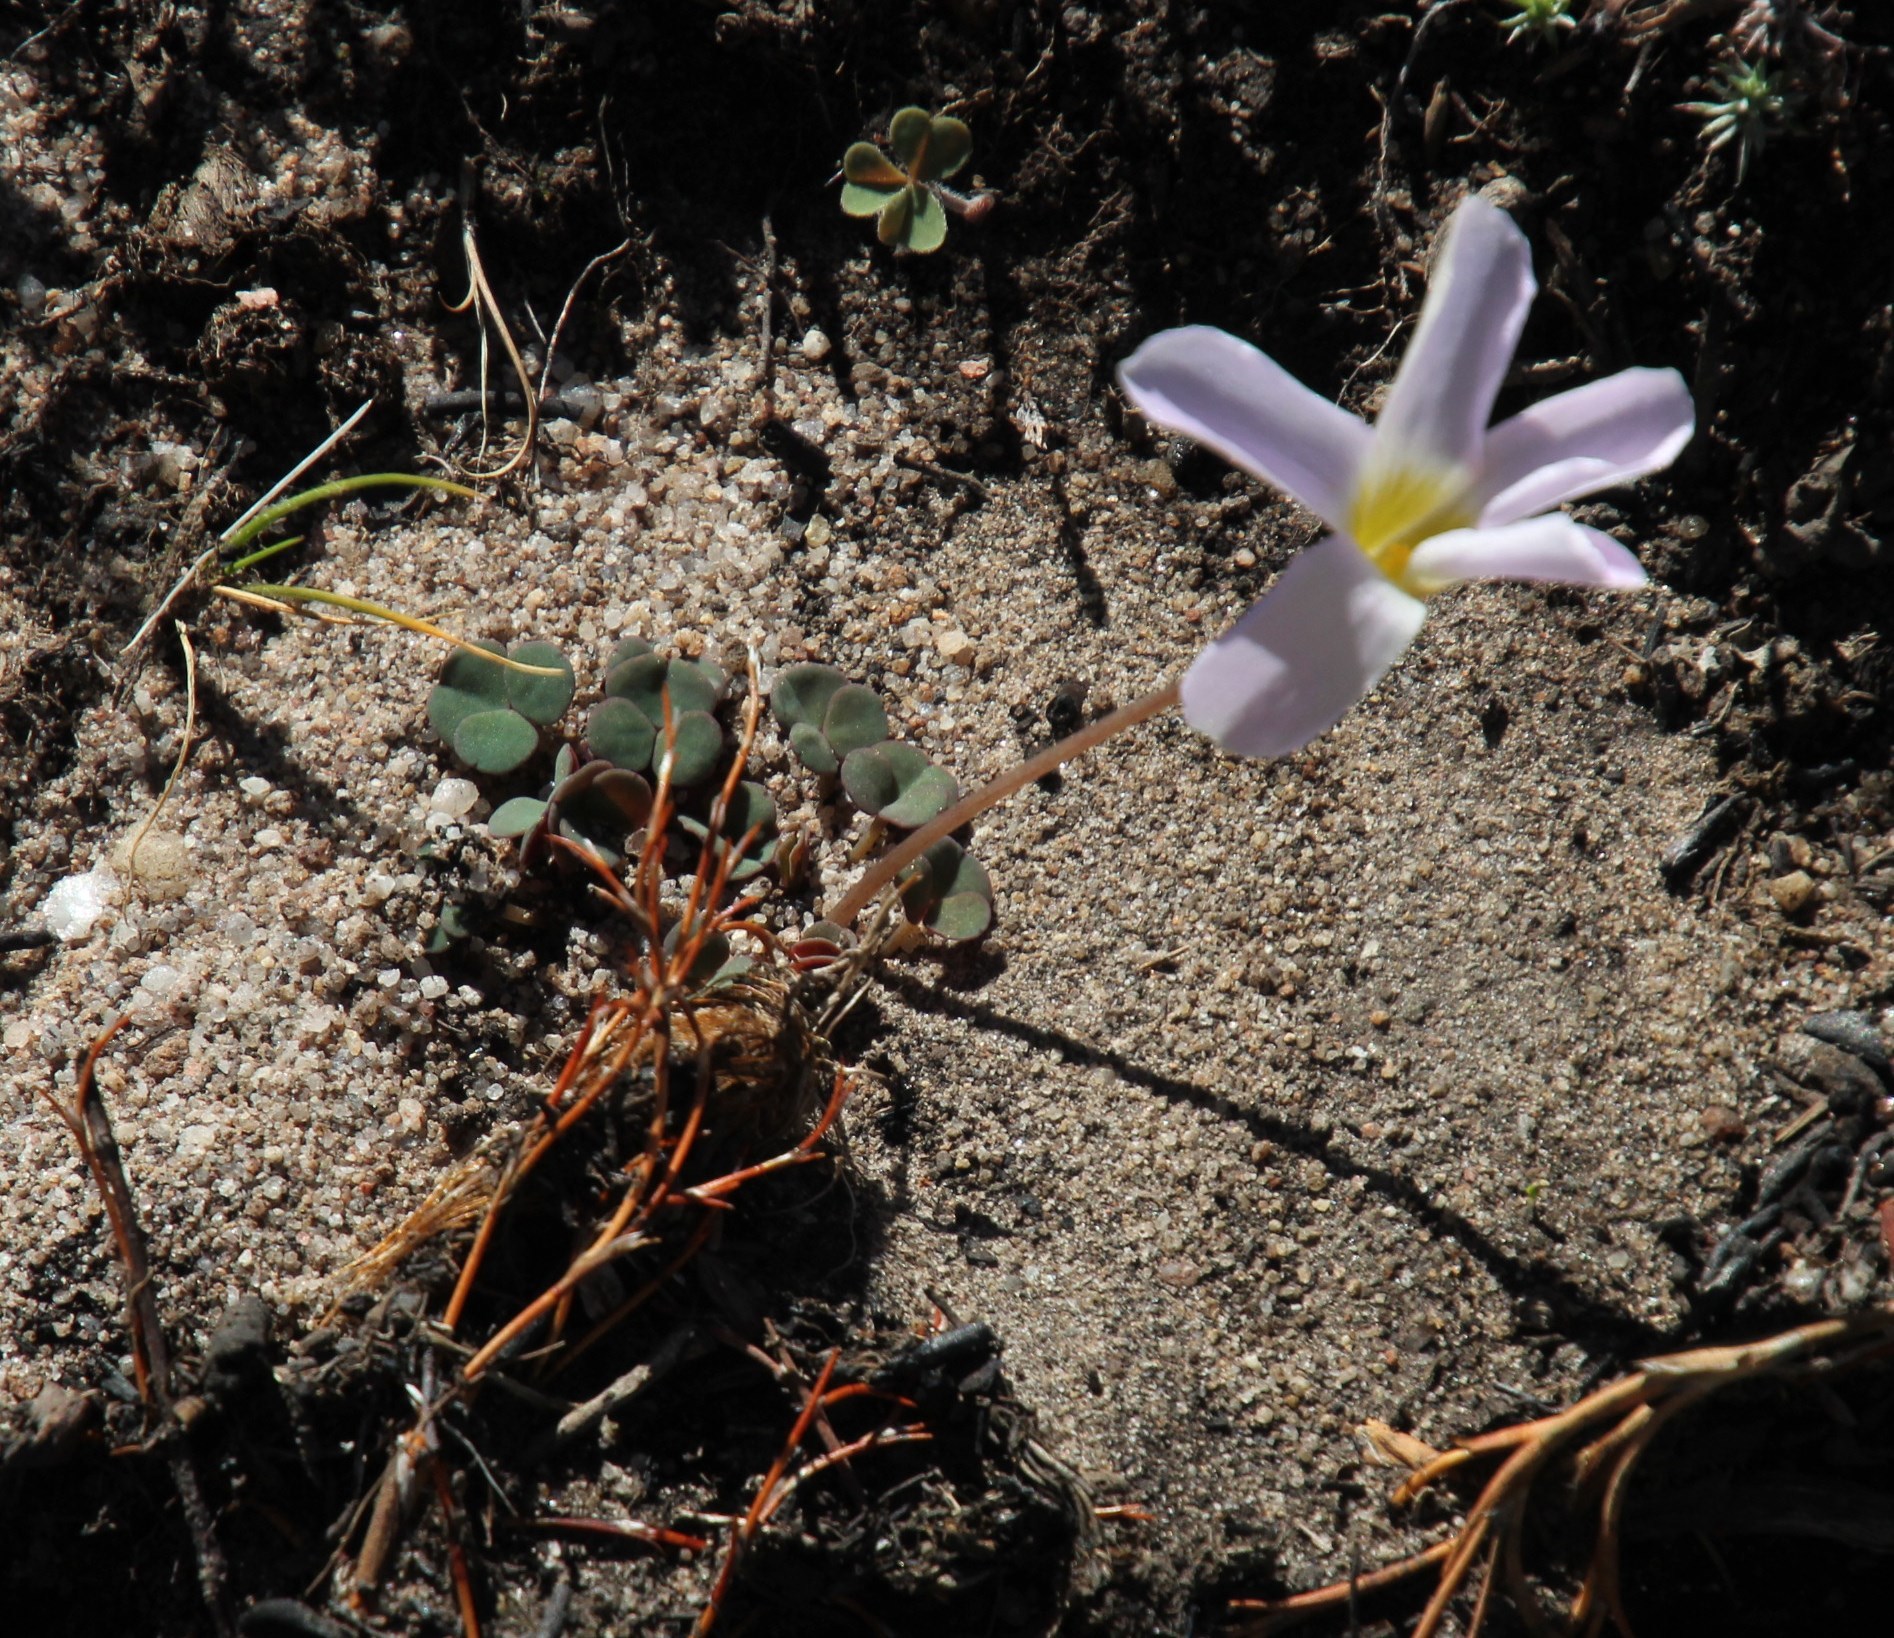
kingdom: Plantae
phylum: Tracheophyta
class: Magnoliopsida
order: Oxalidales
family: Oxalidaceae
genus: Oxalis
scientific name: Oxalis pocockiae
